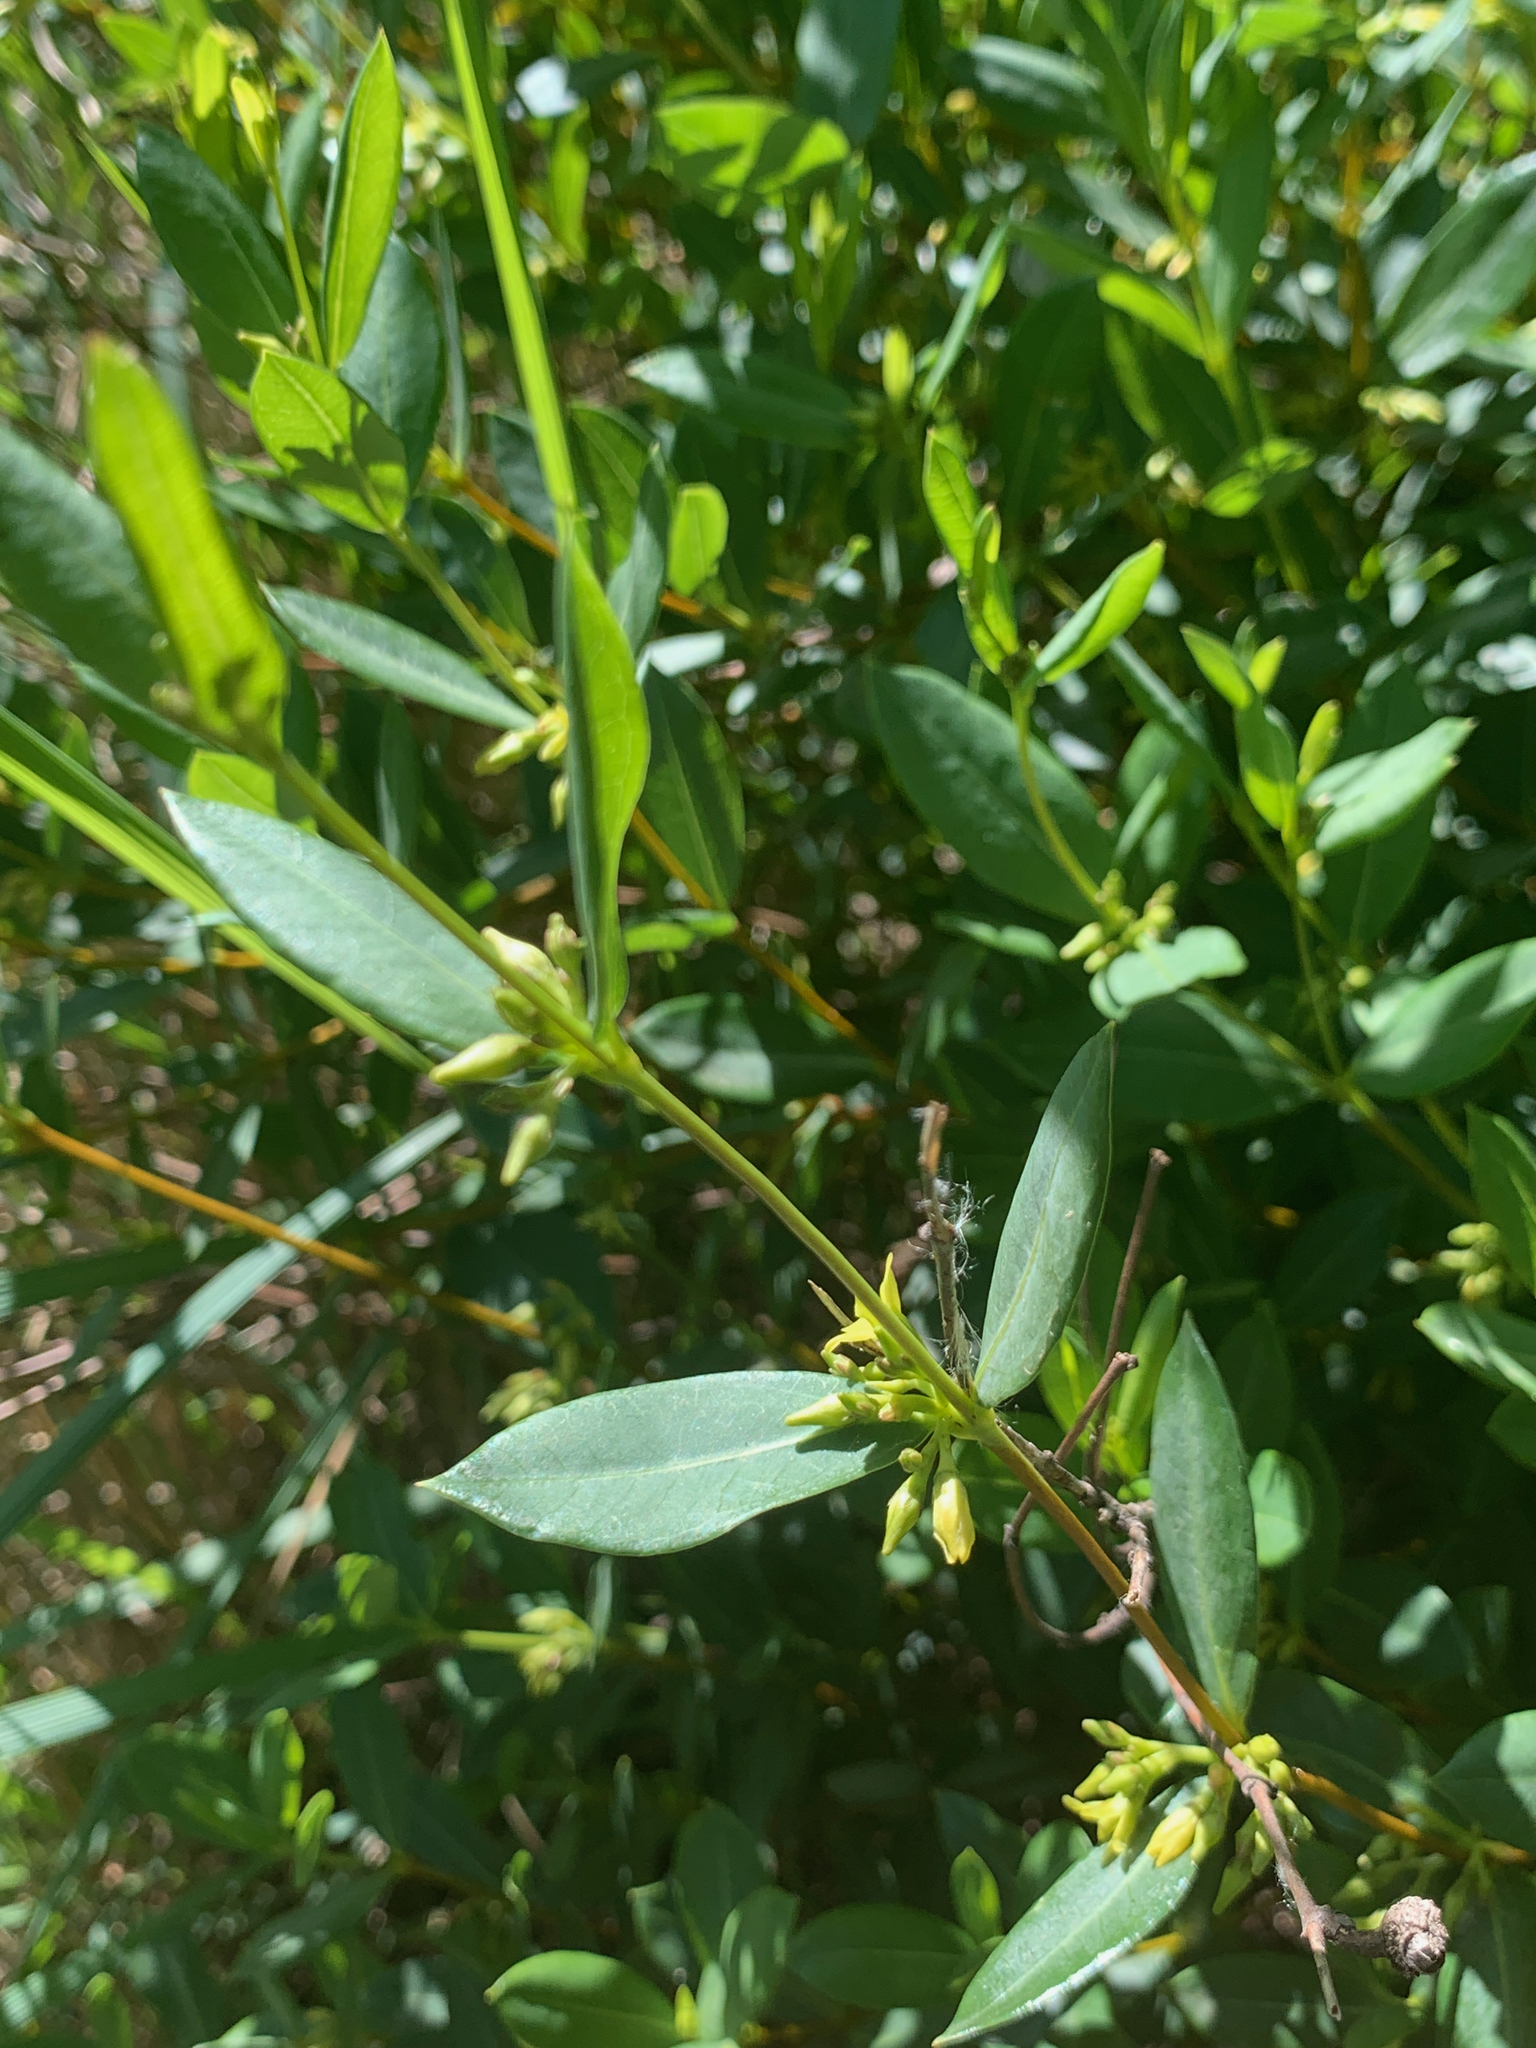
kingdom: Plantae
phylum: Tracheophyta
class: Magnoliopsida
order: Gentianales
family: Apocynaceae
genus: Cryptolepis
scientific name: Cryptolepis oblongifolia
